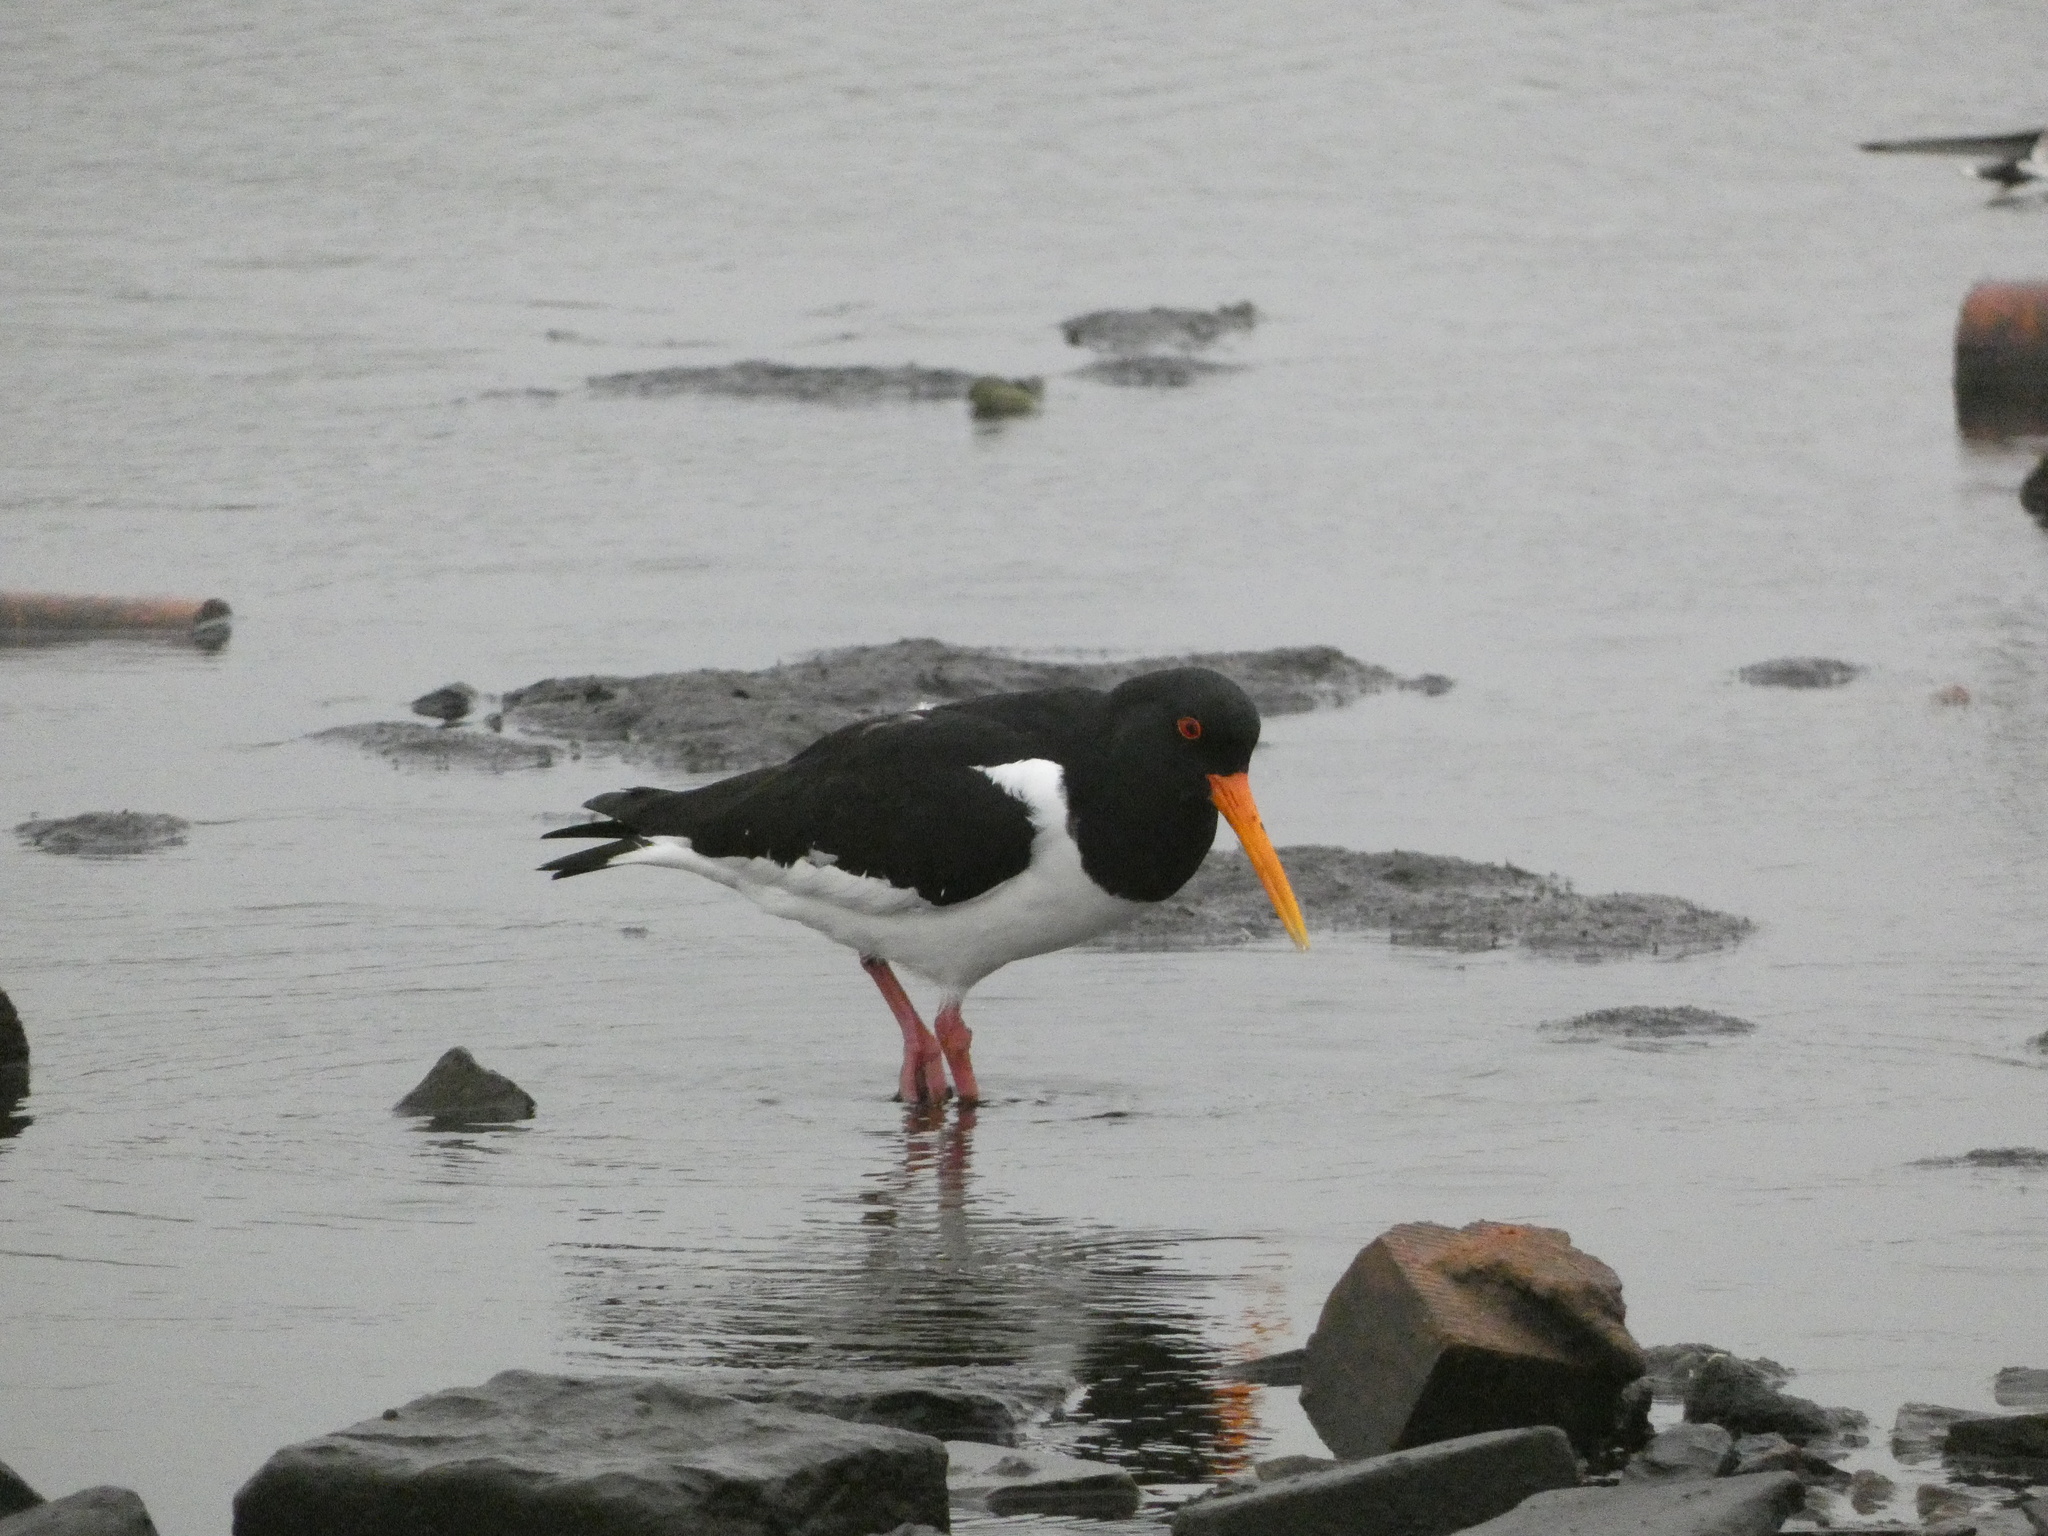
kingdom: Animalia
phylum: Chordata
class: Aves
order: Charadriiformes
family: Haematopodidae
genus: Haematopus
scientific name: Haematopus ostralegus
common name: Eurasian oystercatcher
